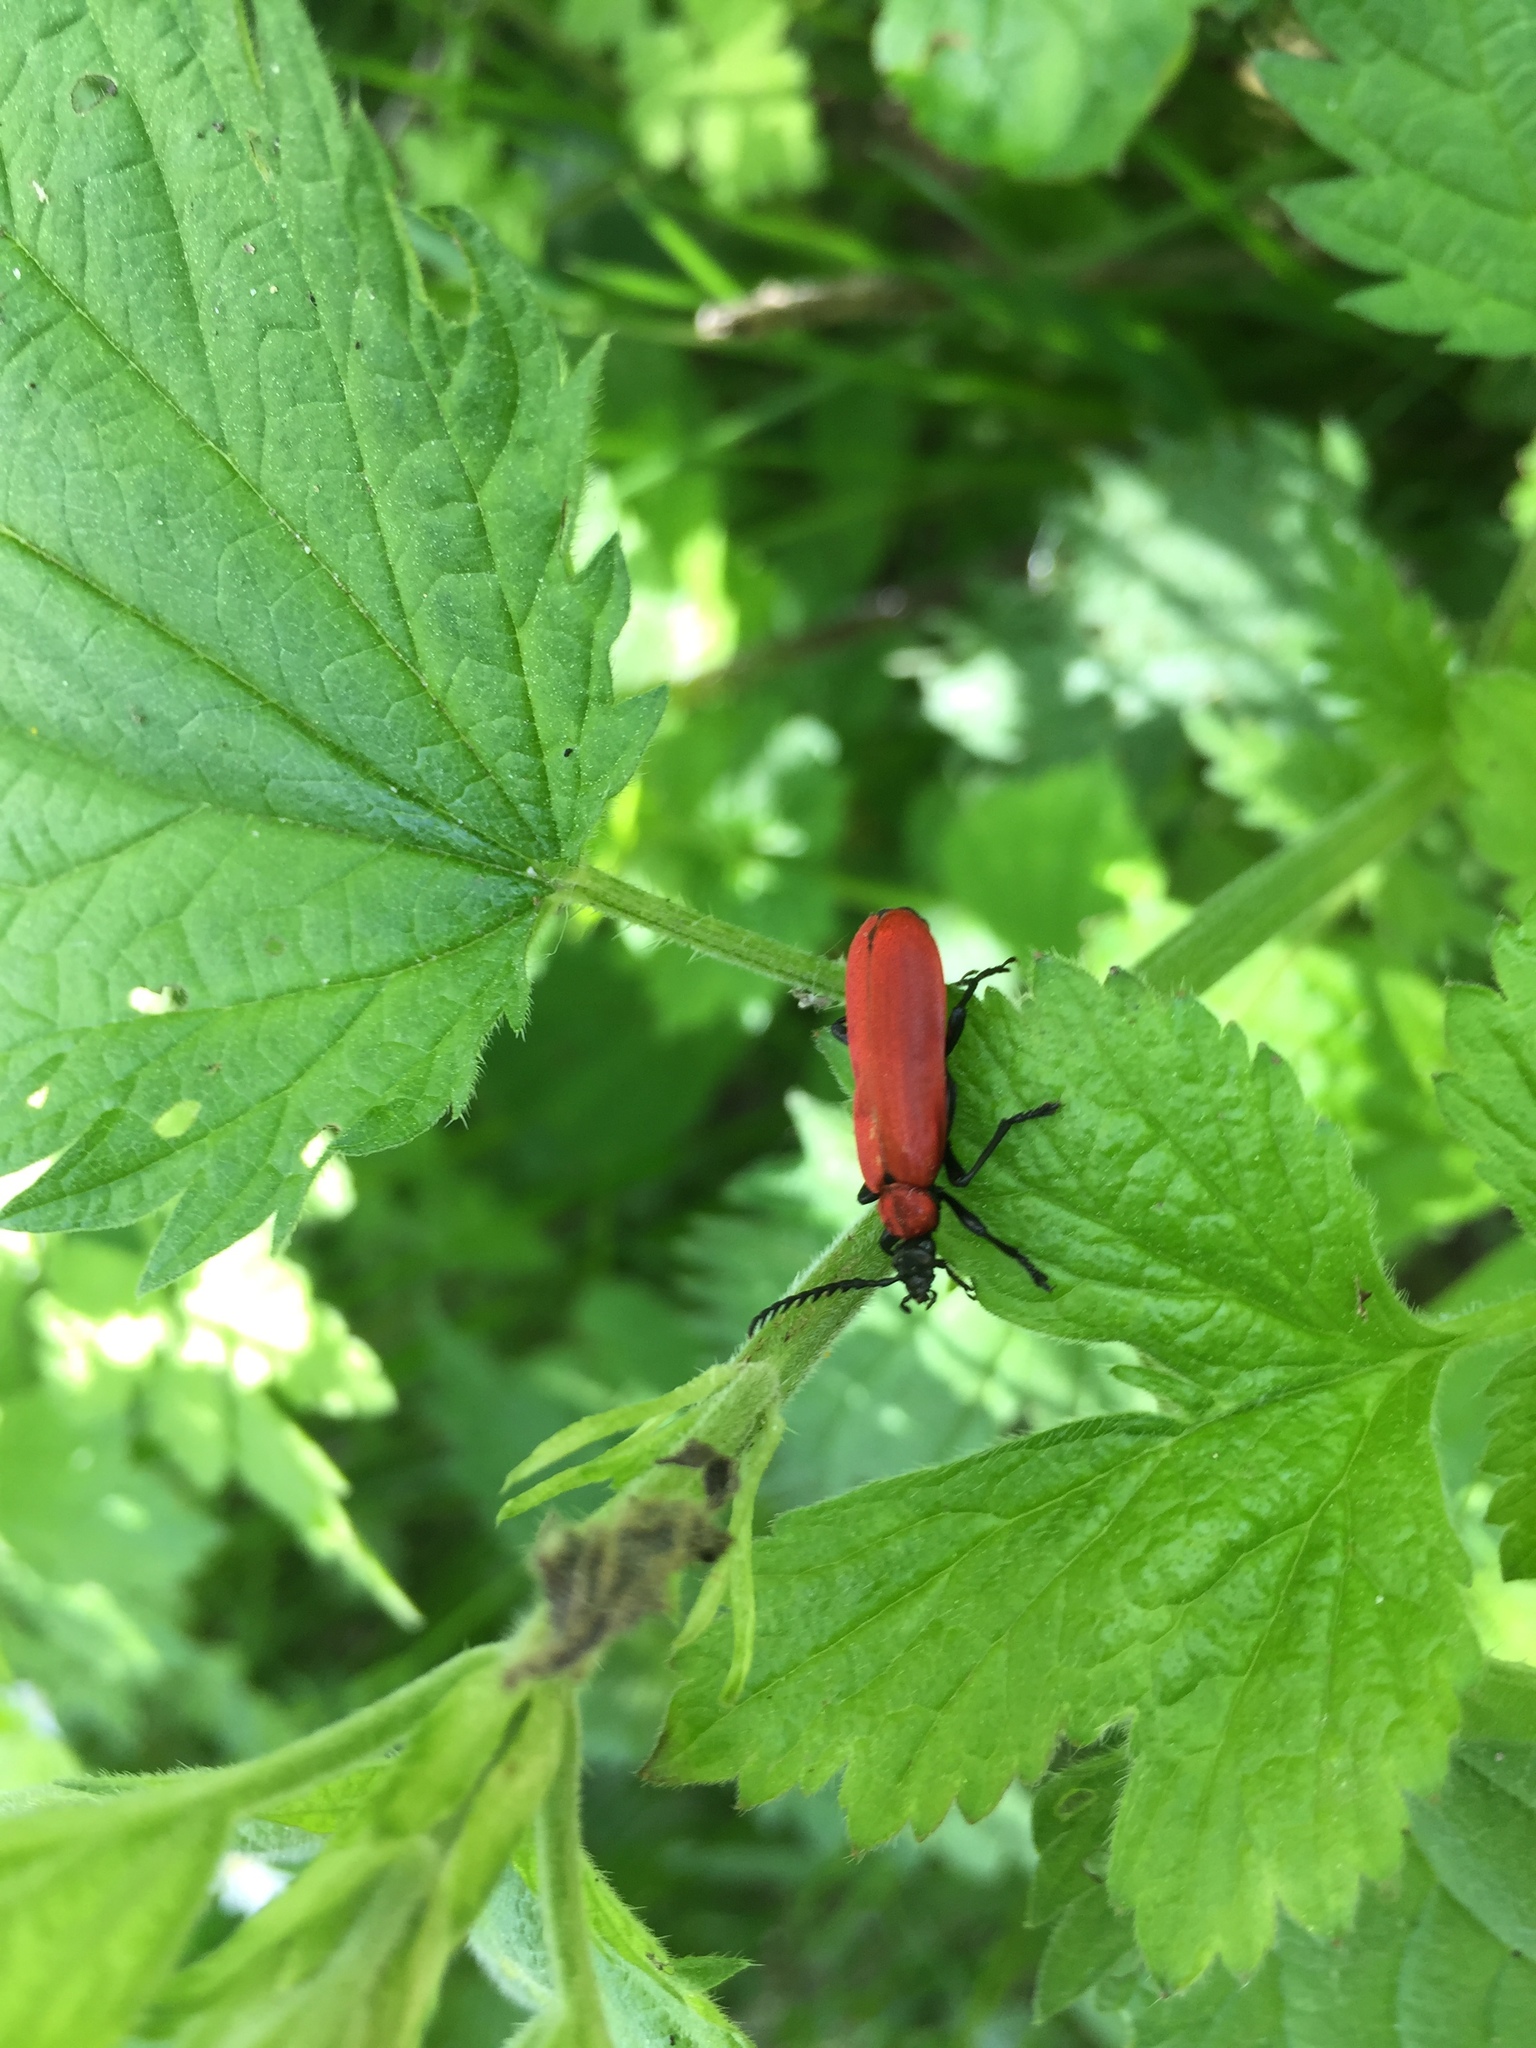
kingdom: Animalia
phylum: Arthropoda
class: Insecta
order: Coleoptera
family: Pyrochroidae
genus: Pyrochroa
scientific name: Pyrochroa coccinea
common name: Black-headed cardinal beetle
